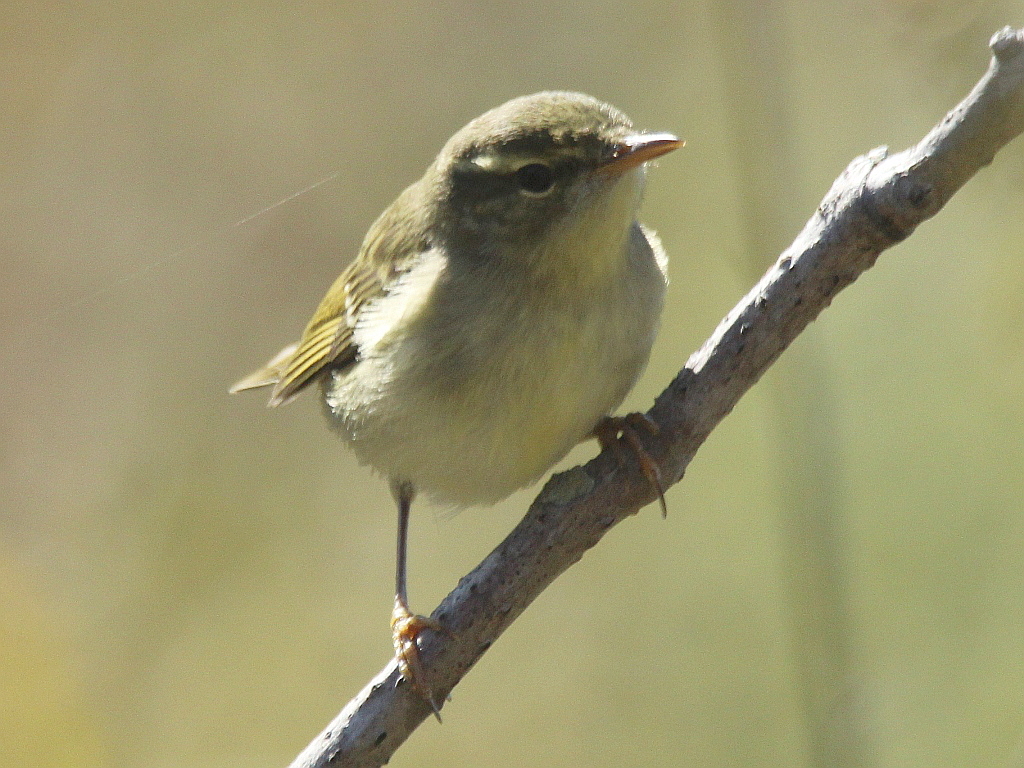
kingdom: Animalia
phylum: Chordata
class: Aves
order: Passeriformes
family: Phylloscopidae
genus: Phylloscopus
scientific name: Phylloscopus borealis
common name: Arctic warbler
